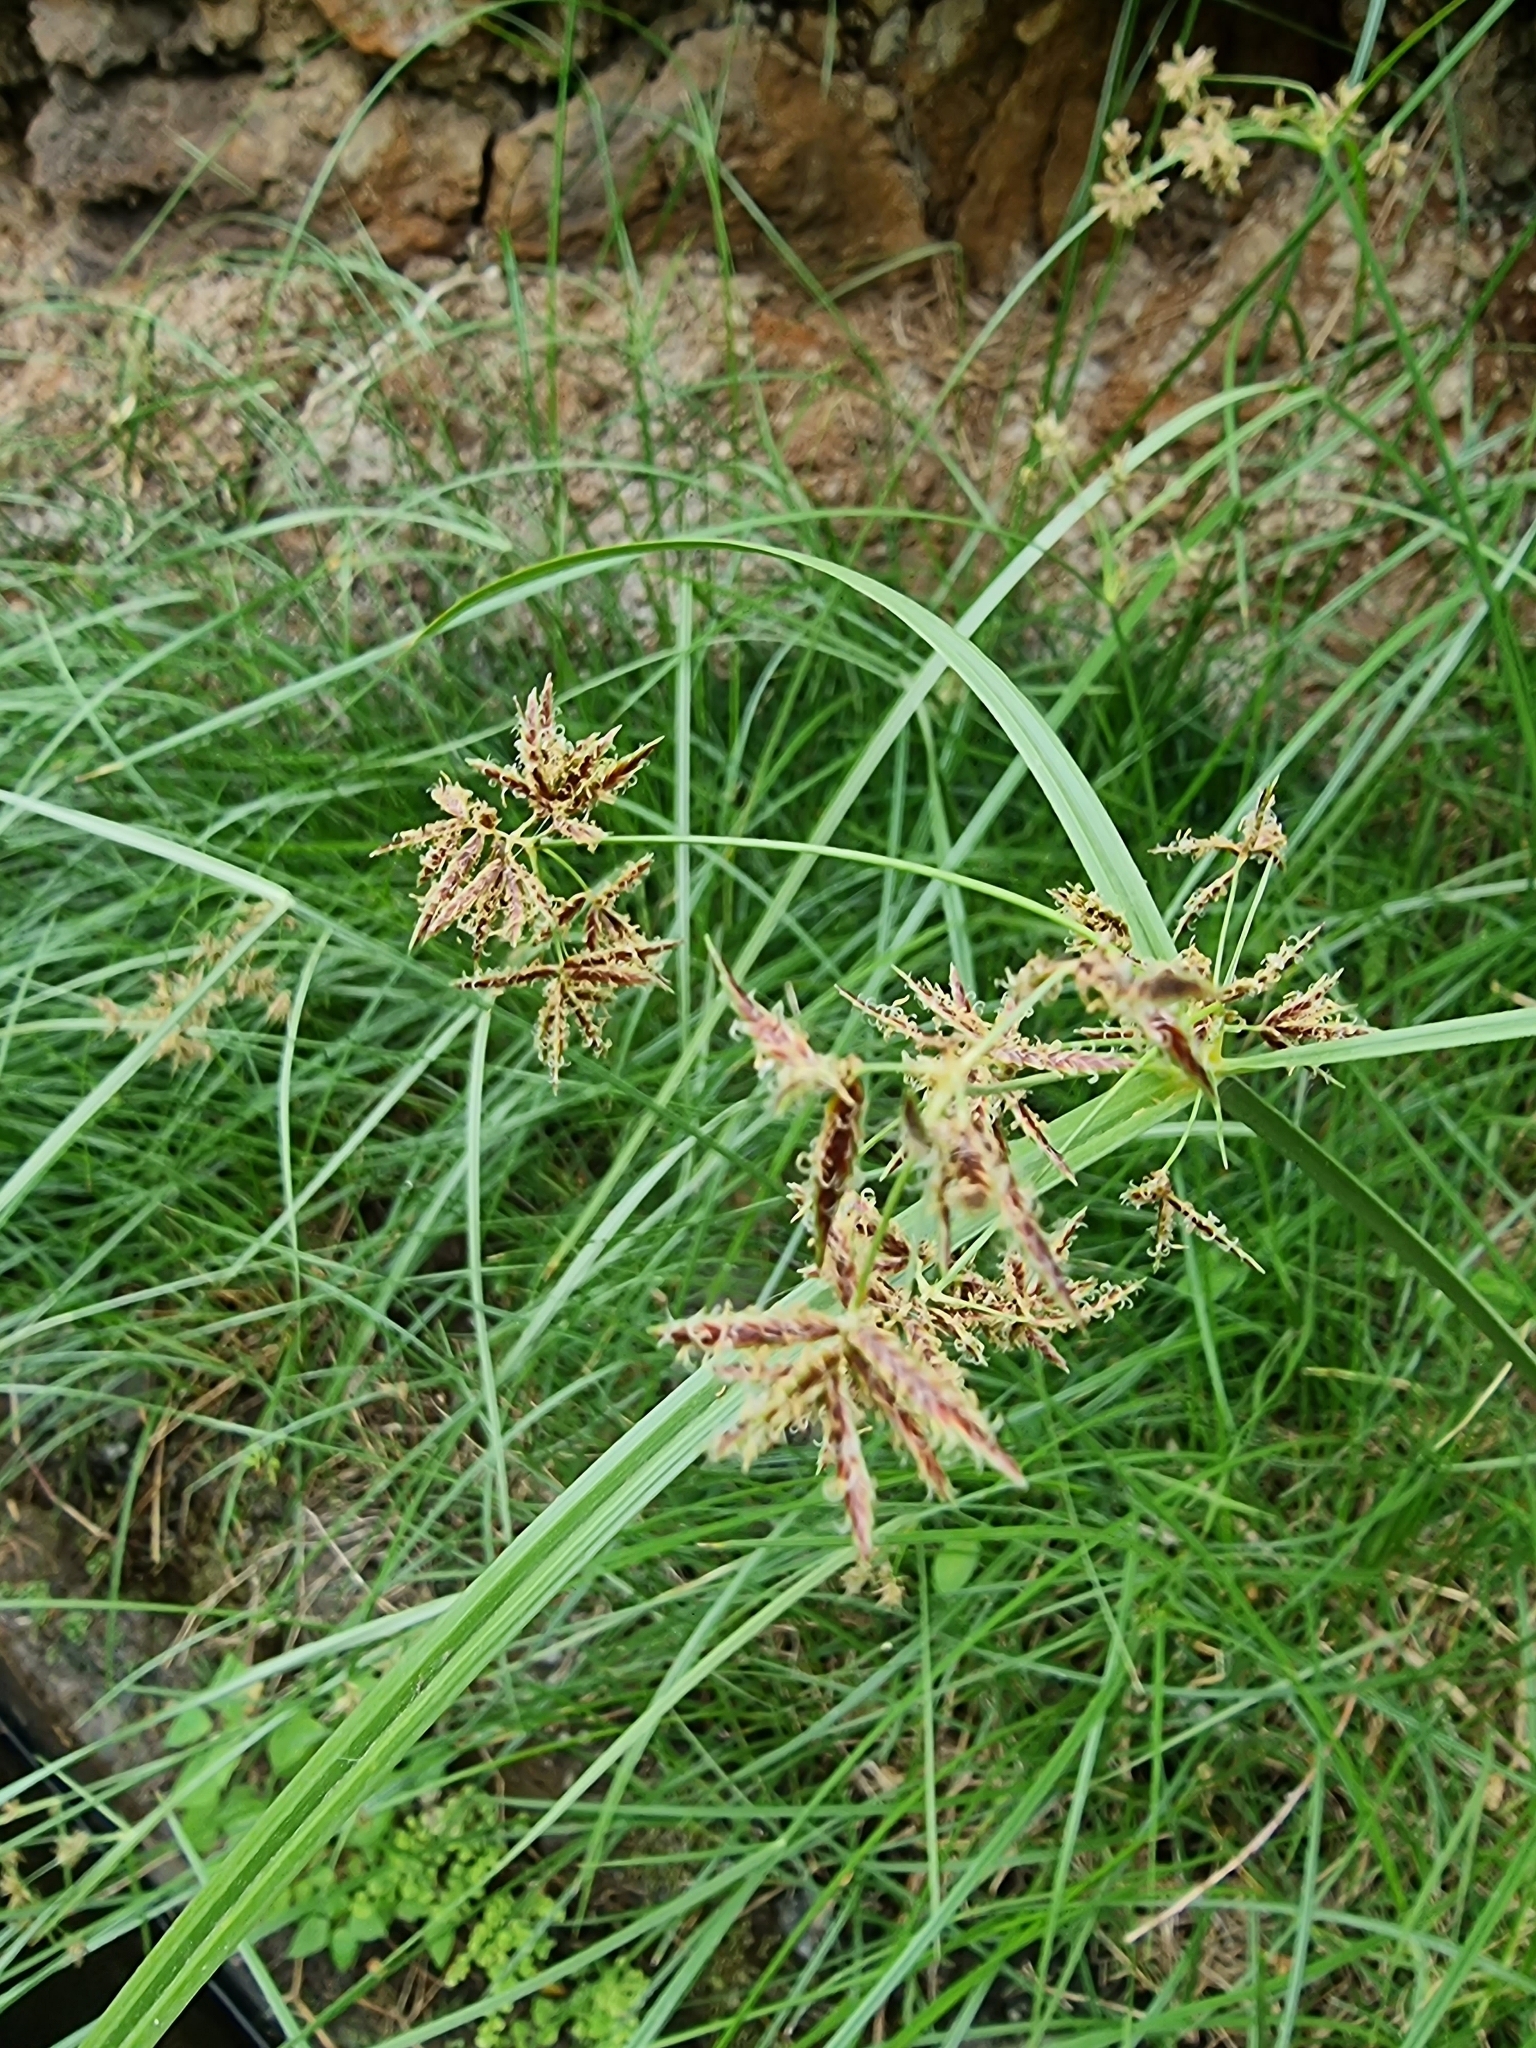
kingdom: Plantae
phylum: Tracheophyta
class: Liliopsida
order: Poales
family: Cyperaceae
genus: Cyperus
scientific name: Cyperus esculentus
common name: Yellow nutsedge
